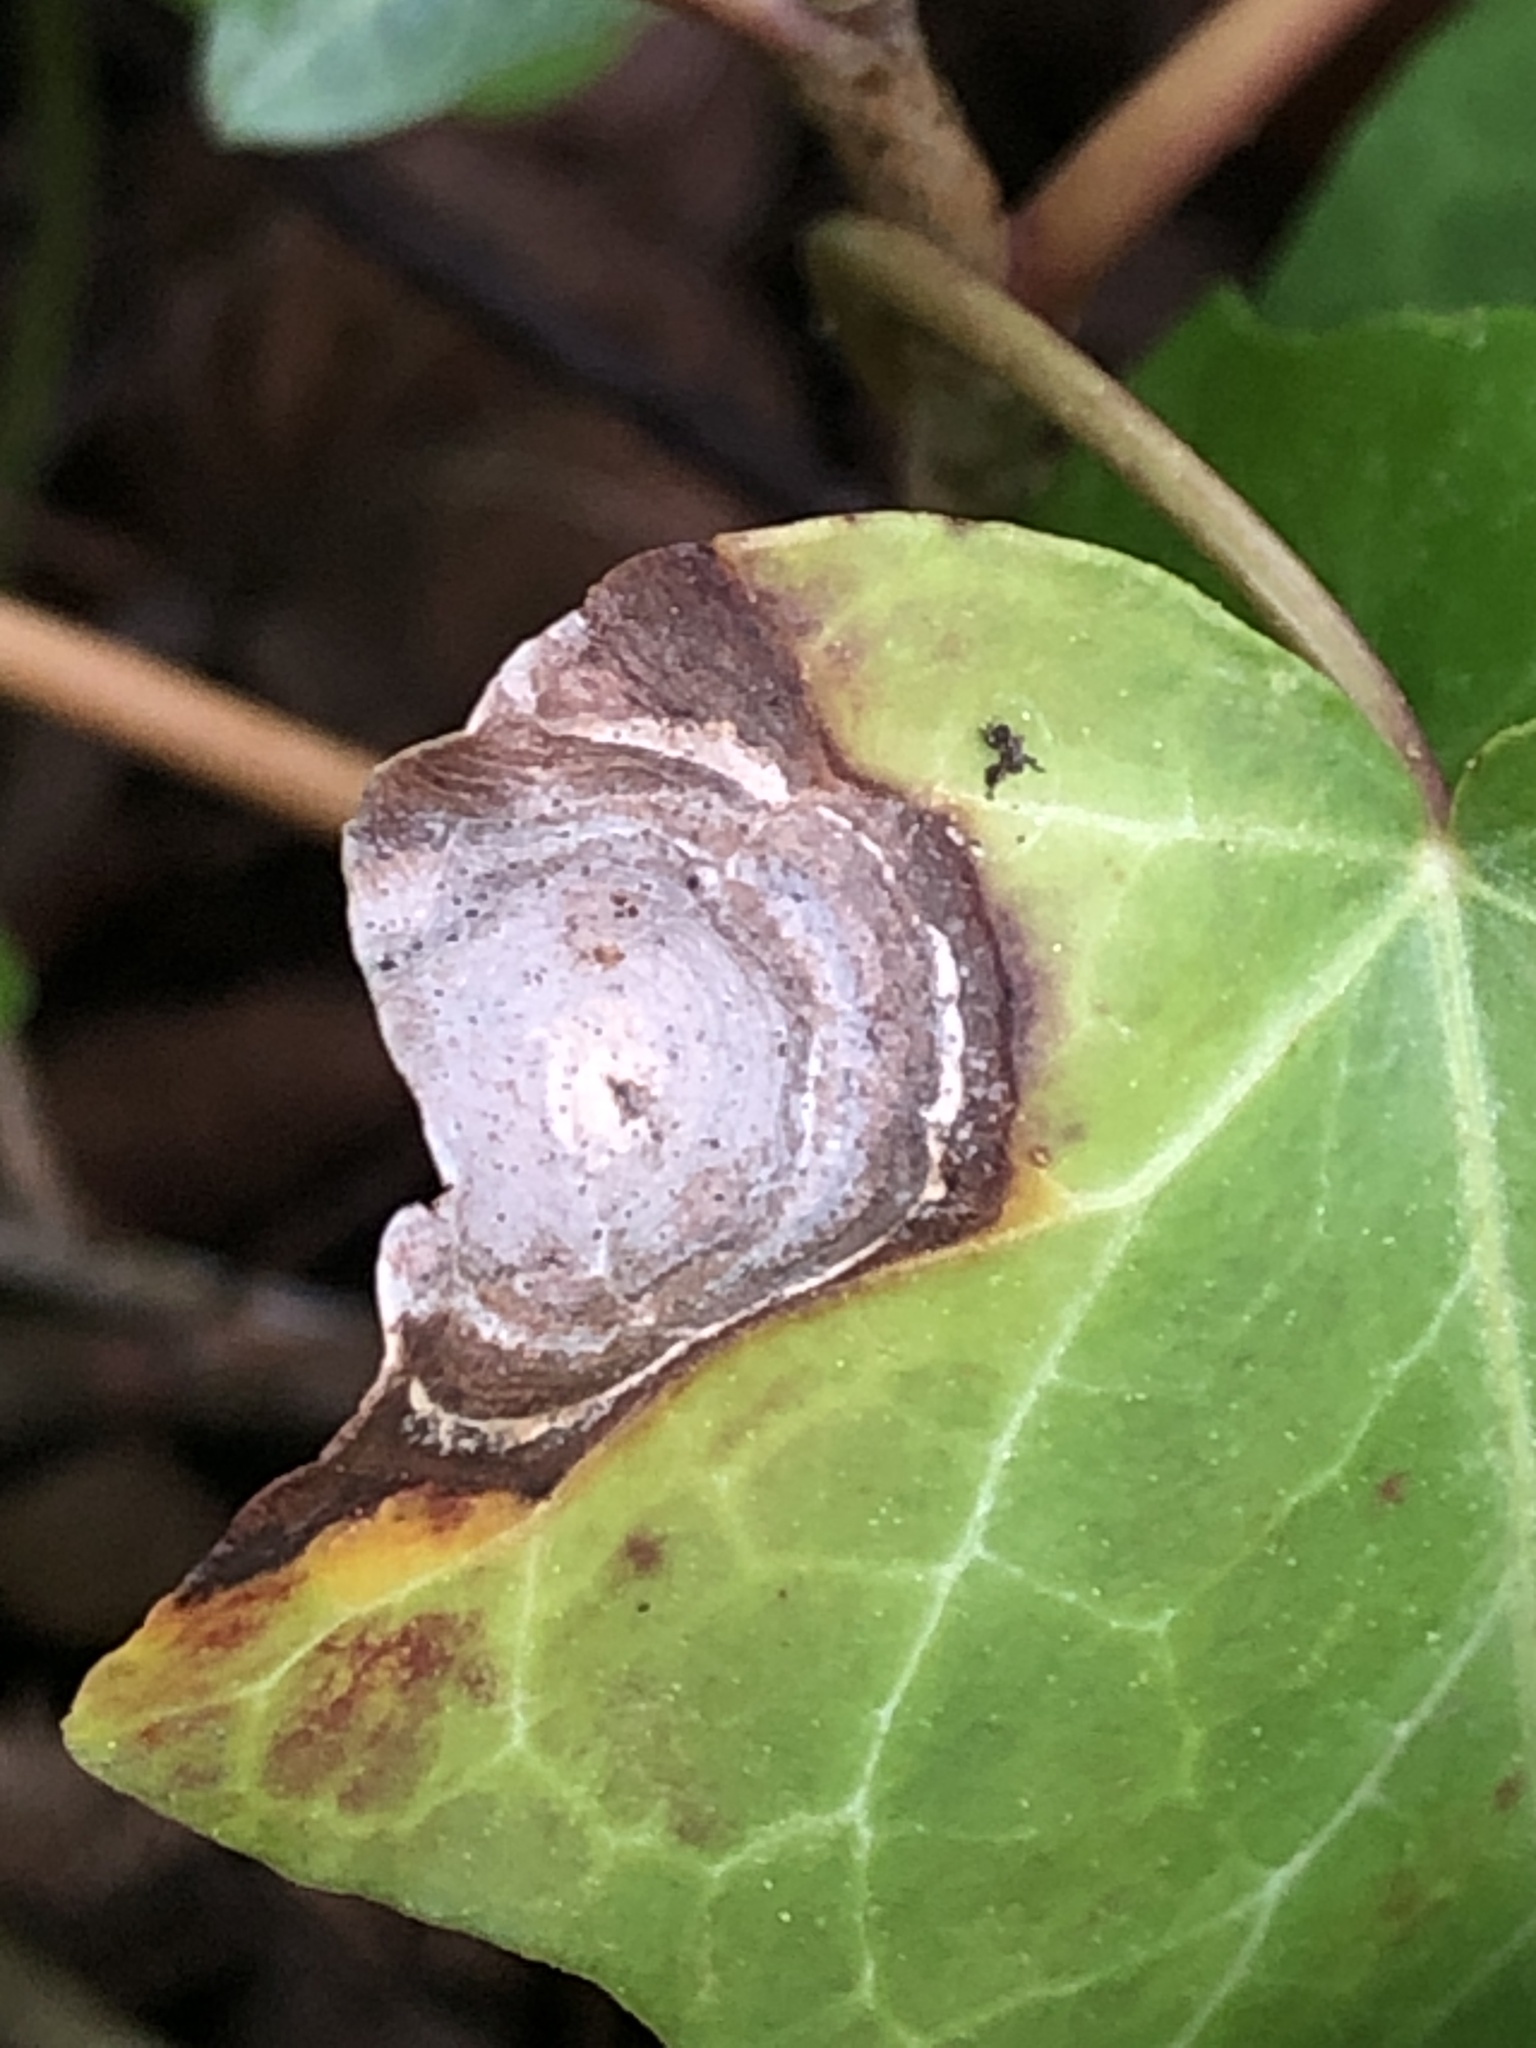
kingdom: Fungi
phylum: Ascomycota
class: Dothideomycetes
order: Pleosporales
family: Didymellaceae
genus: Boeremia
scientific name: Boeremia hedericola
